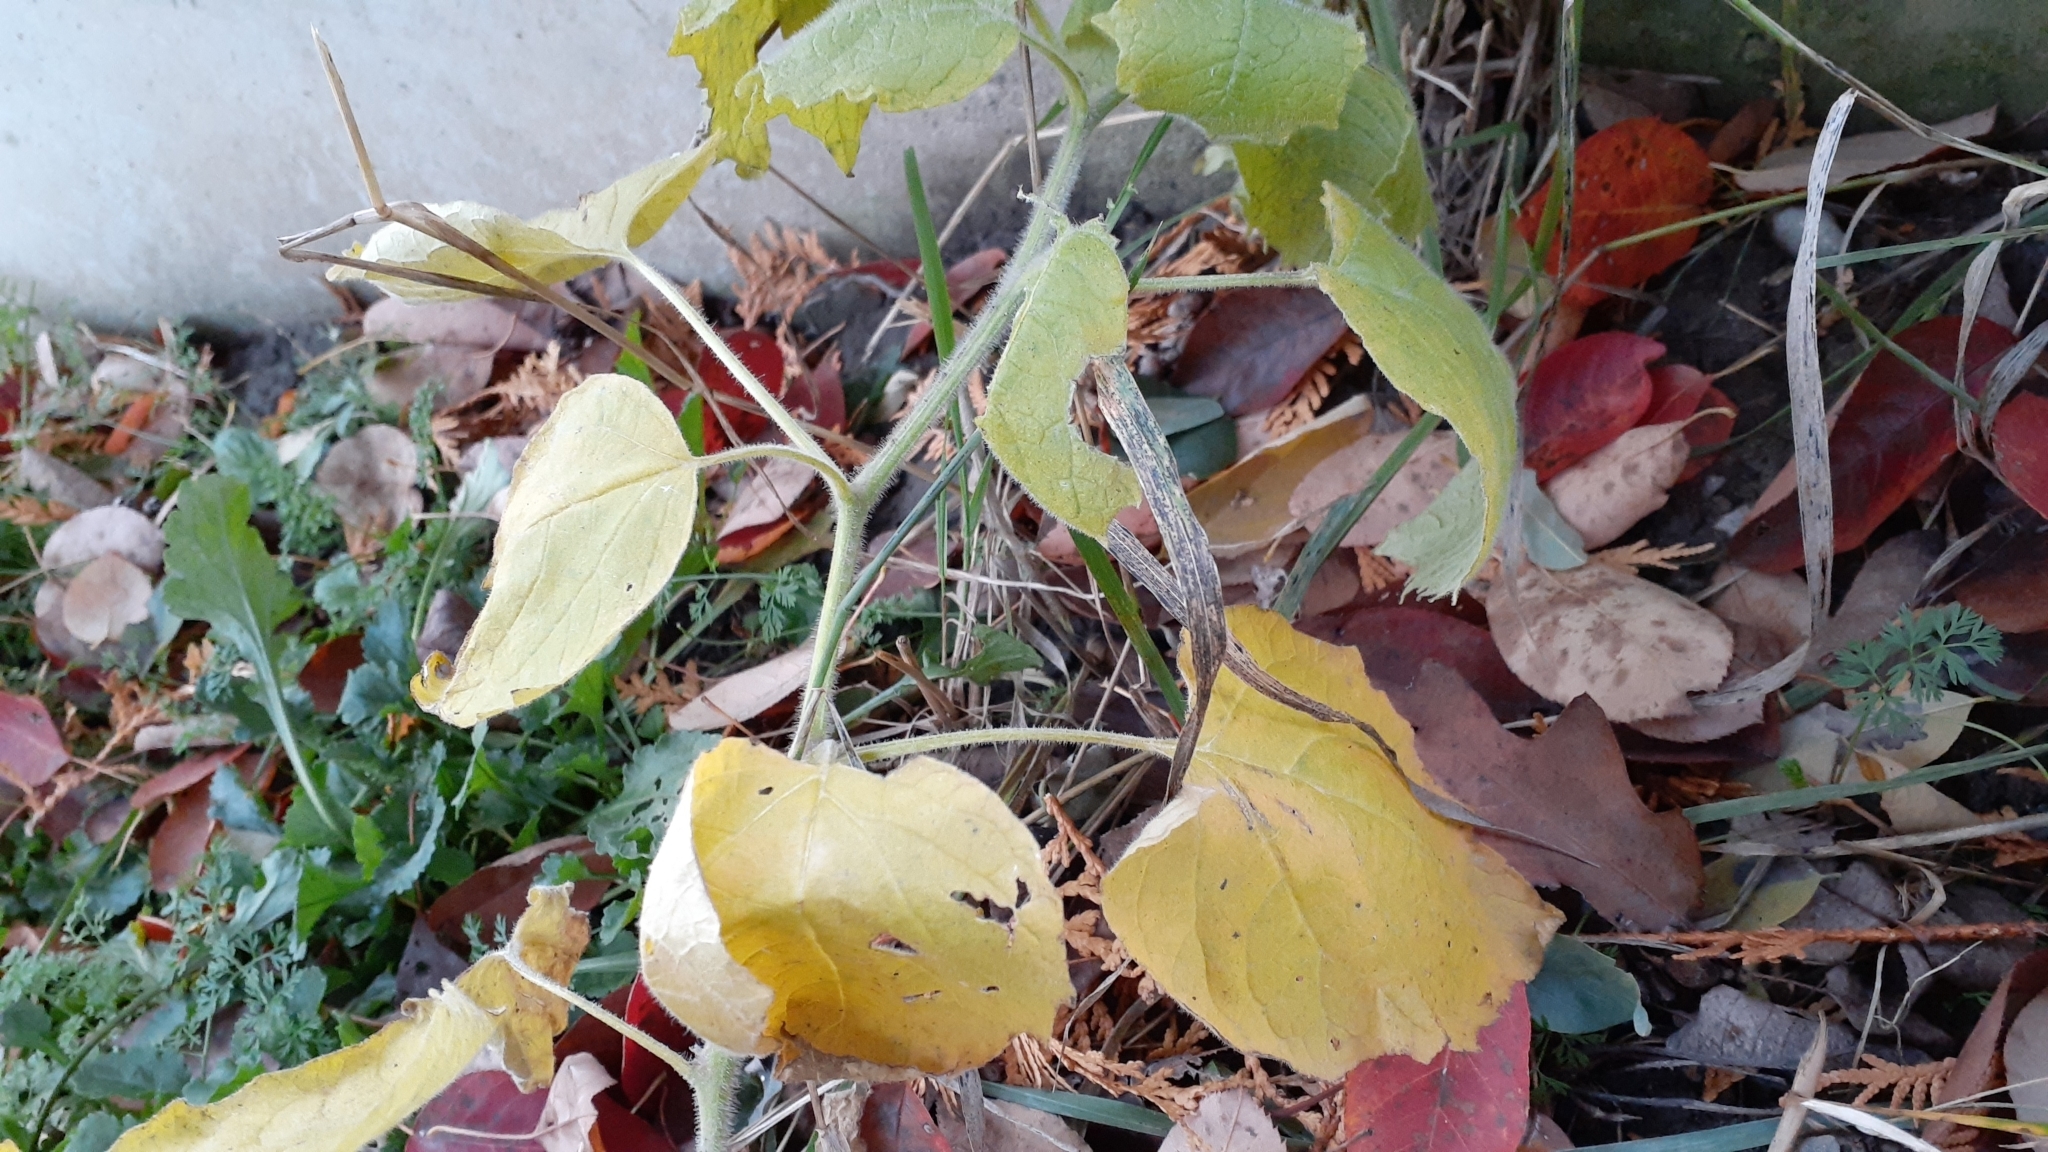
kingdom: Plantae
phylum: Tracheophyta
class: Magnoliopsida
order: Malvales
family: Malvaceae
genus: Abutilon
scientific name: Abutilon theophrasti
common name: Velvetleaf
